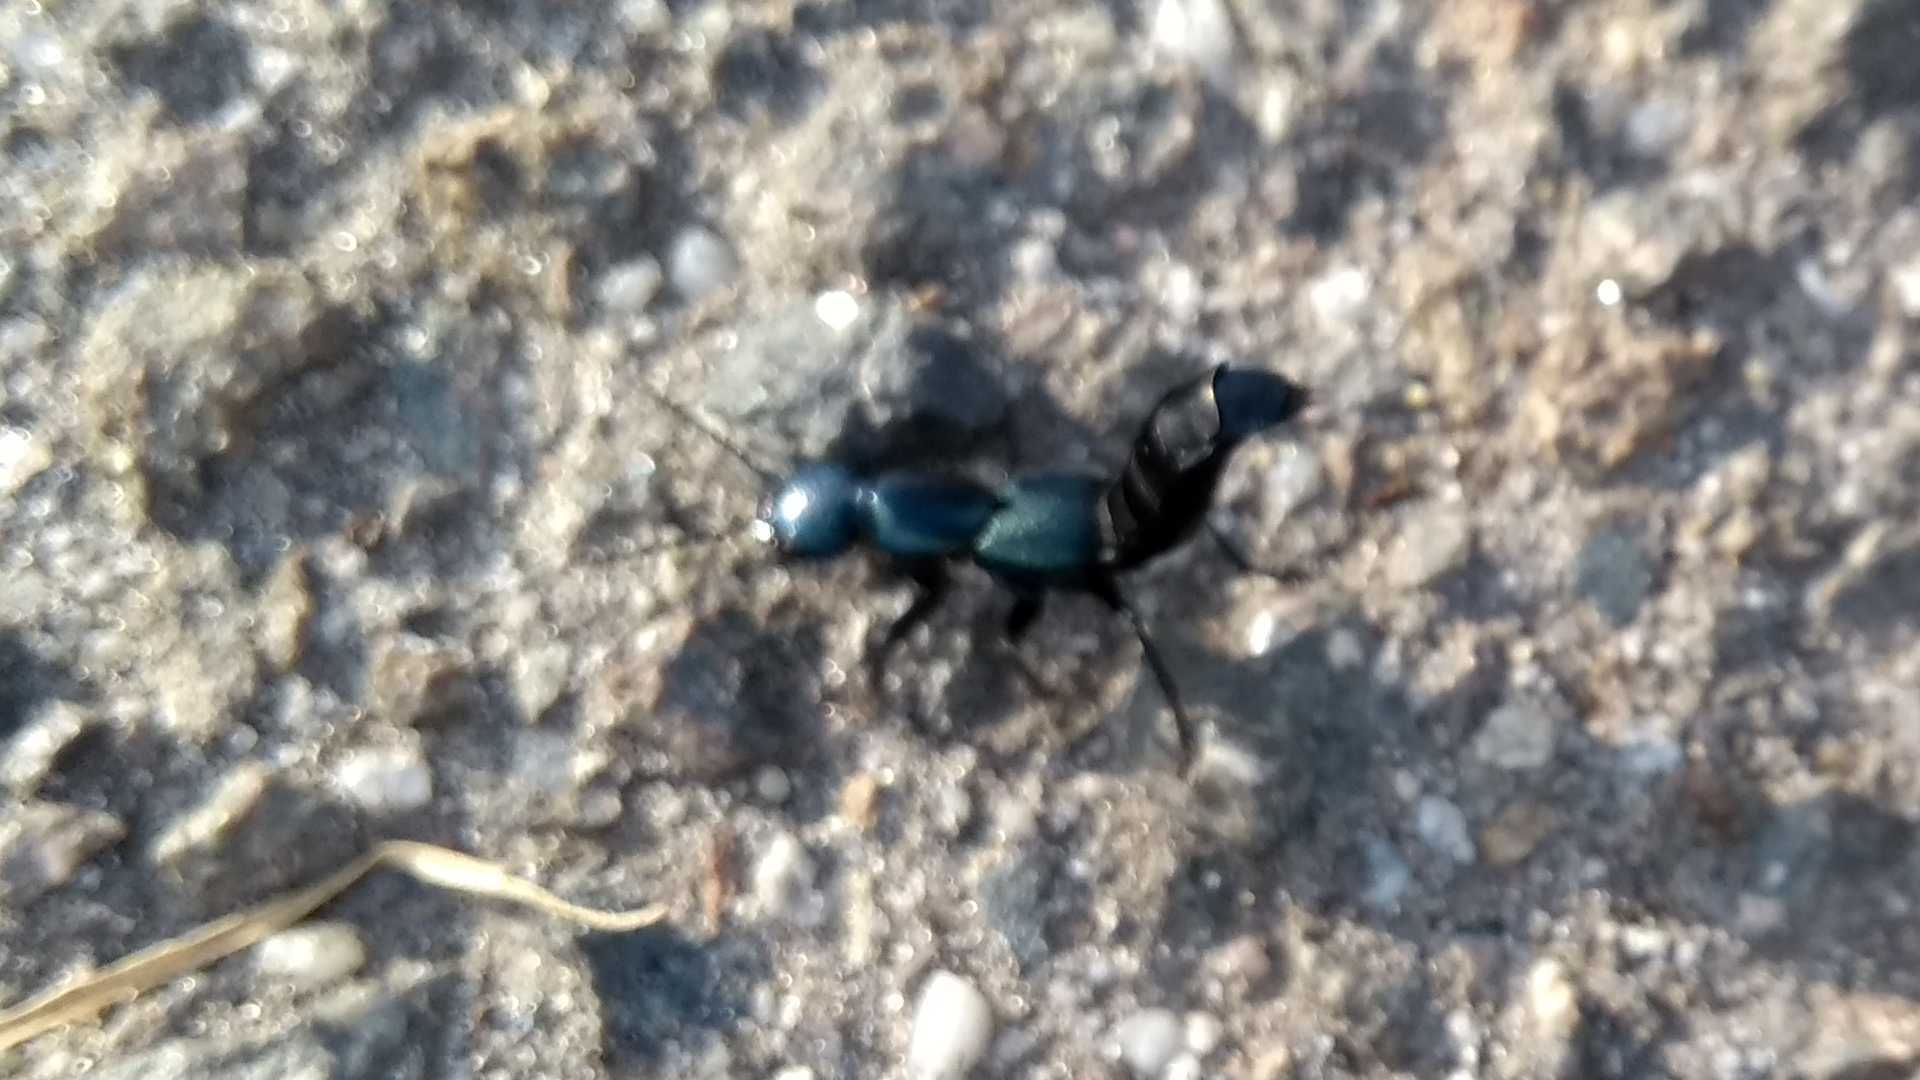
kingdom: Animalia
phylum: Arthropoda
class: Insecta
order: Coleoptera
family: Staphylinidae
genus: Ocypus
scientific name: Ocypus ophthalmicus
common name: Blue rove-beetle
